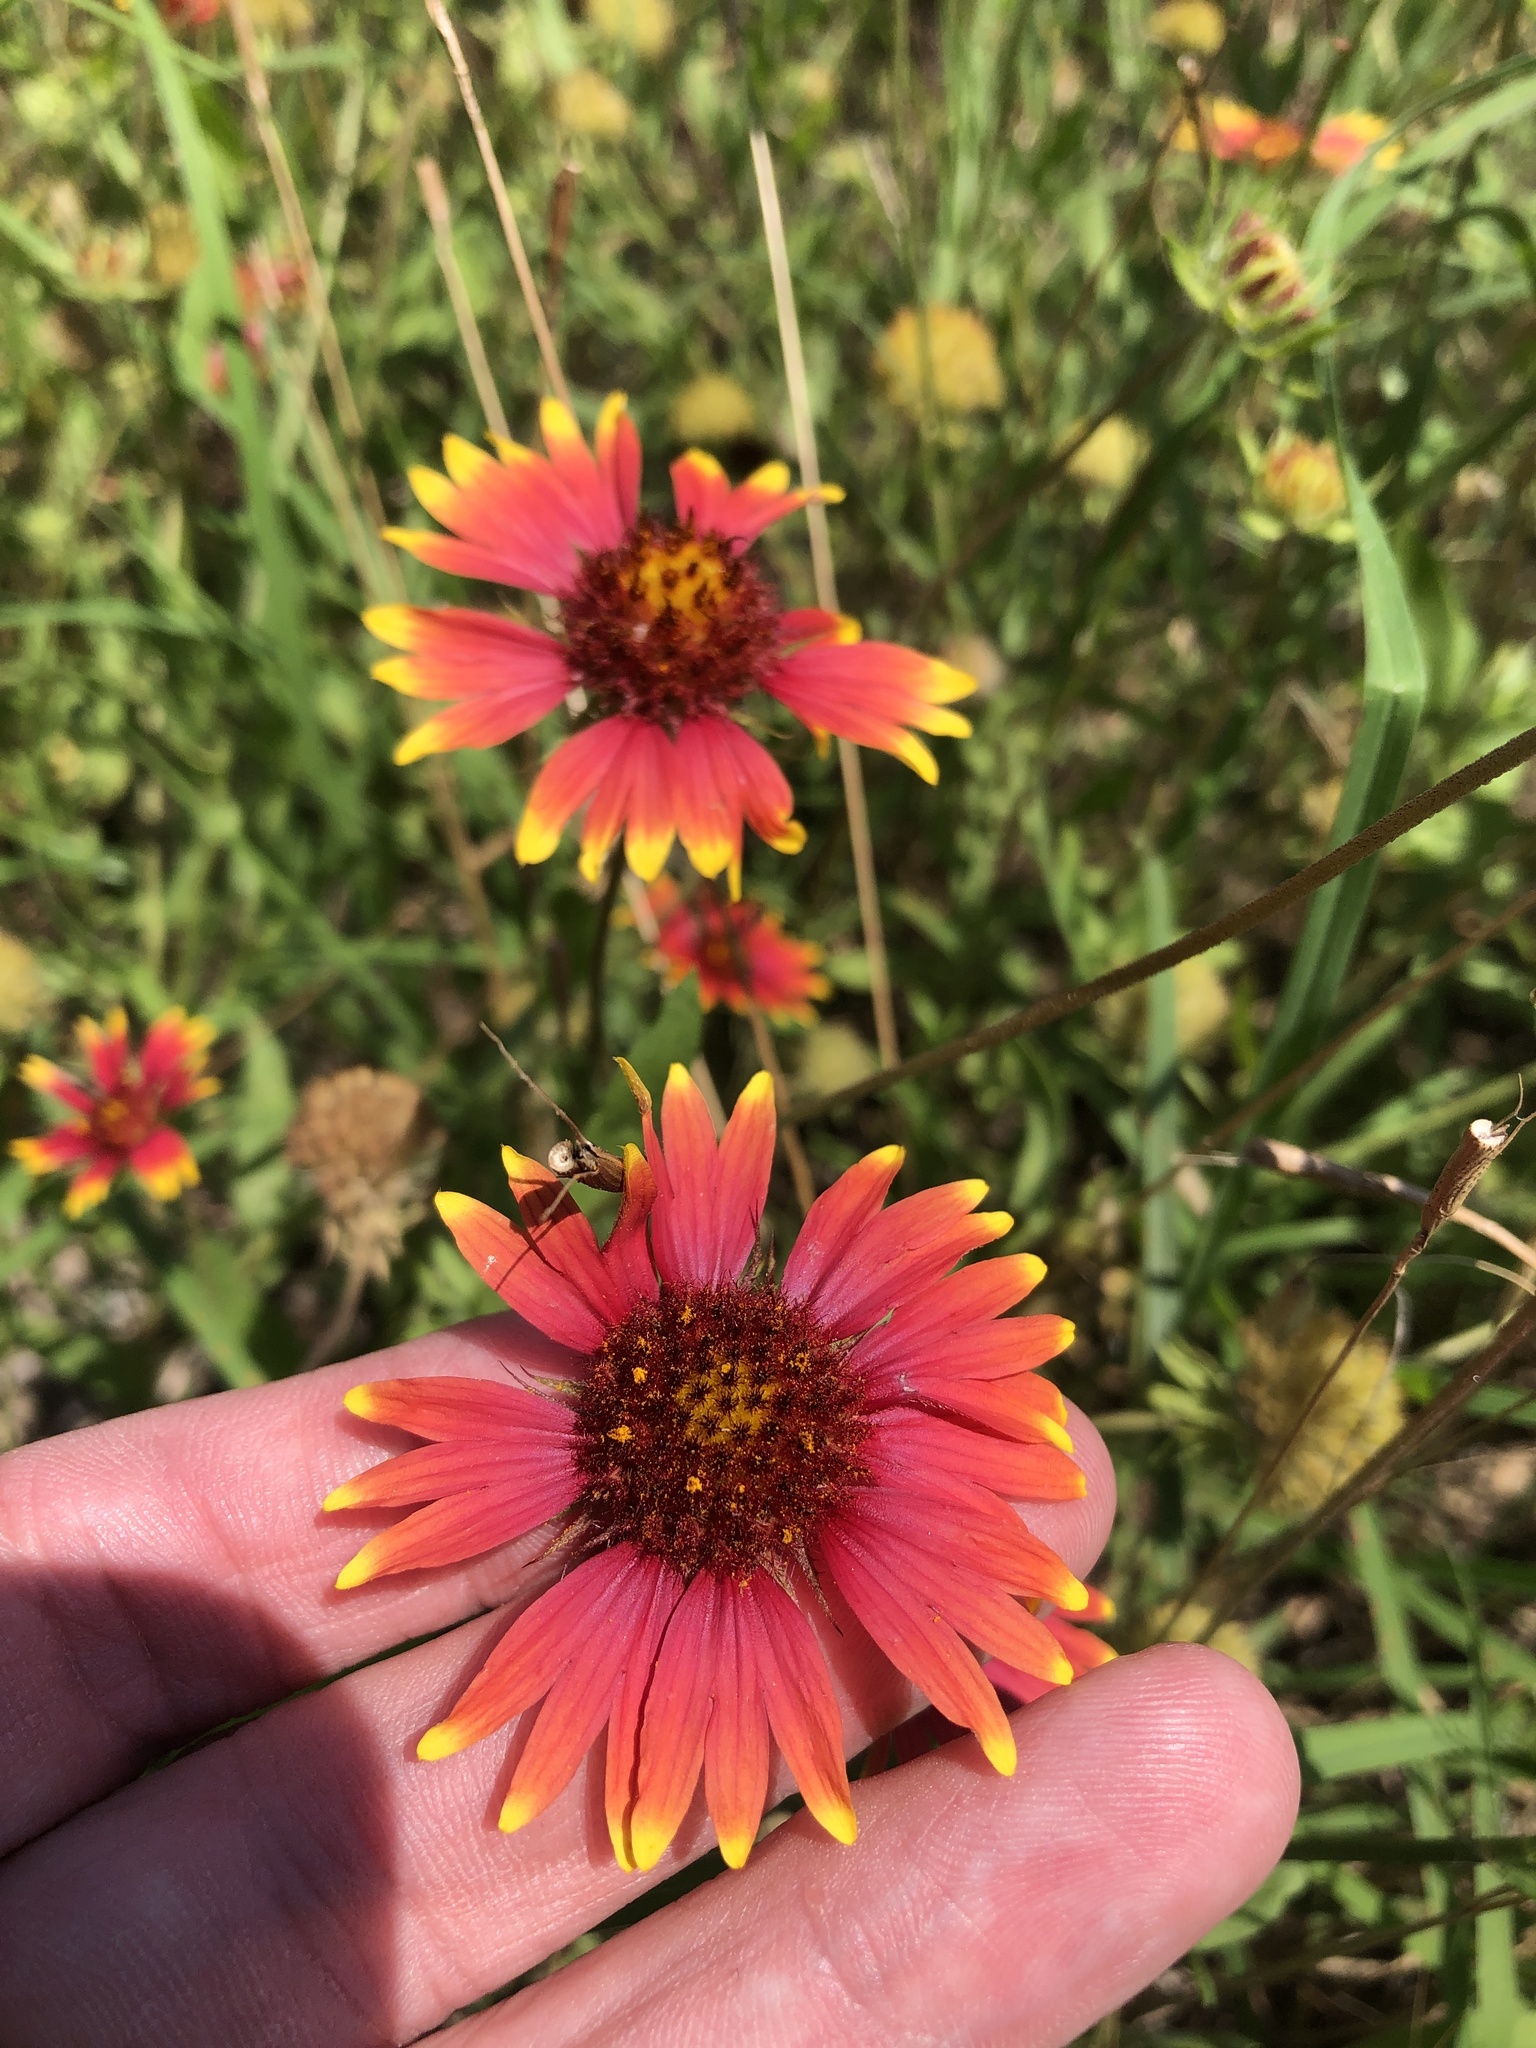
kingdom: Plantae
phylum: Tracheophyta
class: Magnoliopsida
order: Asterales
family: Asteraceae
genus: Gaillardia
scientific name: Gaillardia pulchella
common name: Firewheel
